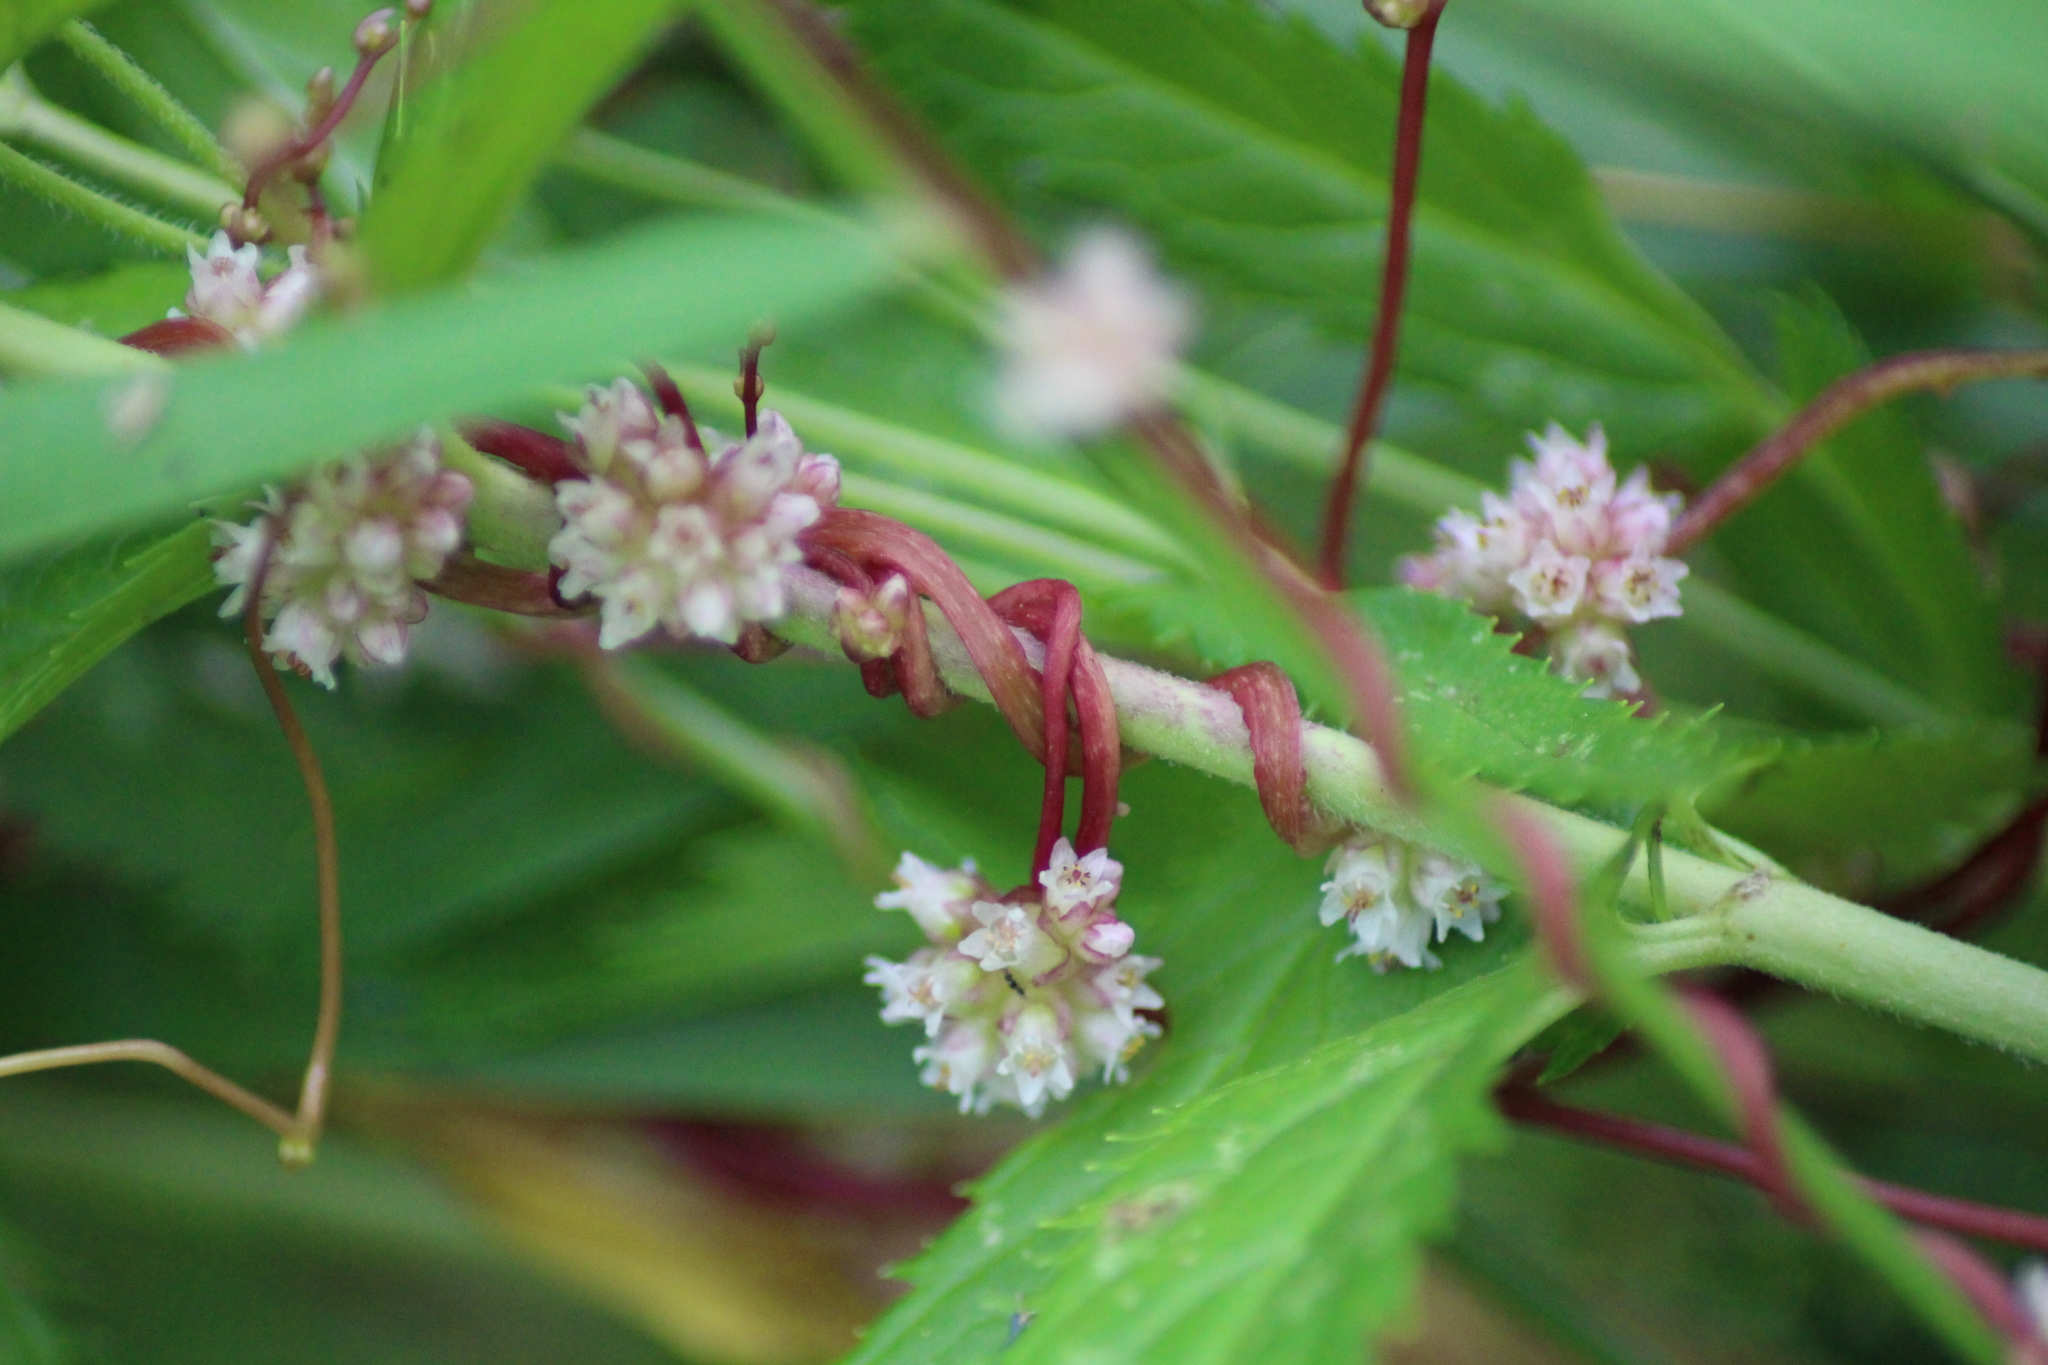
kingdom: Plantae
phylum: Tracheophyta
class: Magnoliopsida
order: Solanales
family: Convolvulaceae
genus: Cuscuta
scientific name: Cuscuta europaea
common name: Greater dodder
